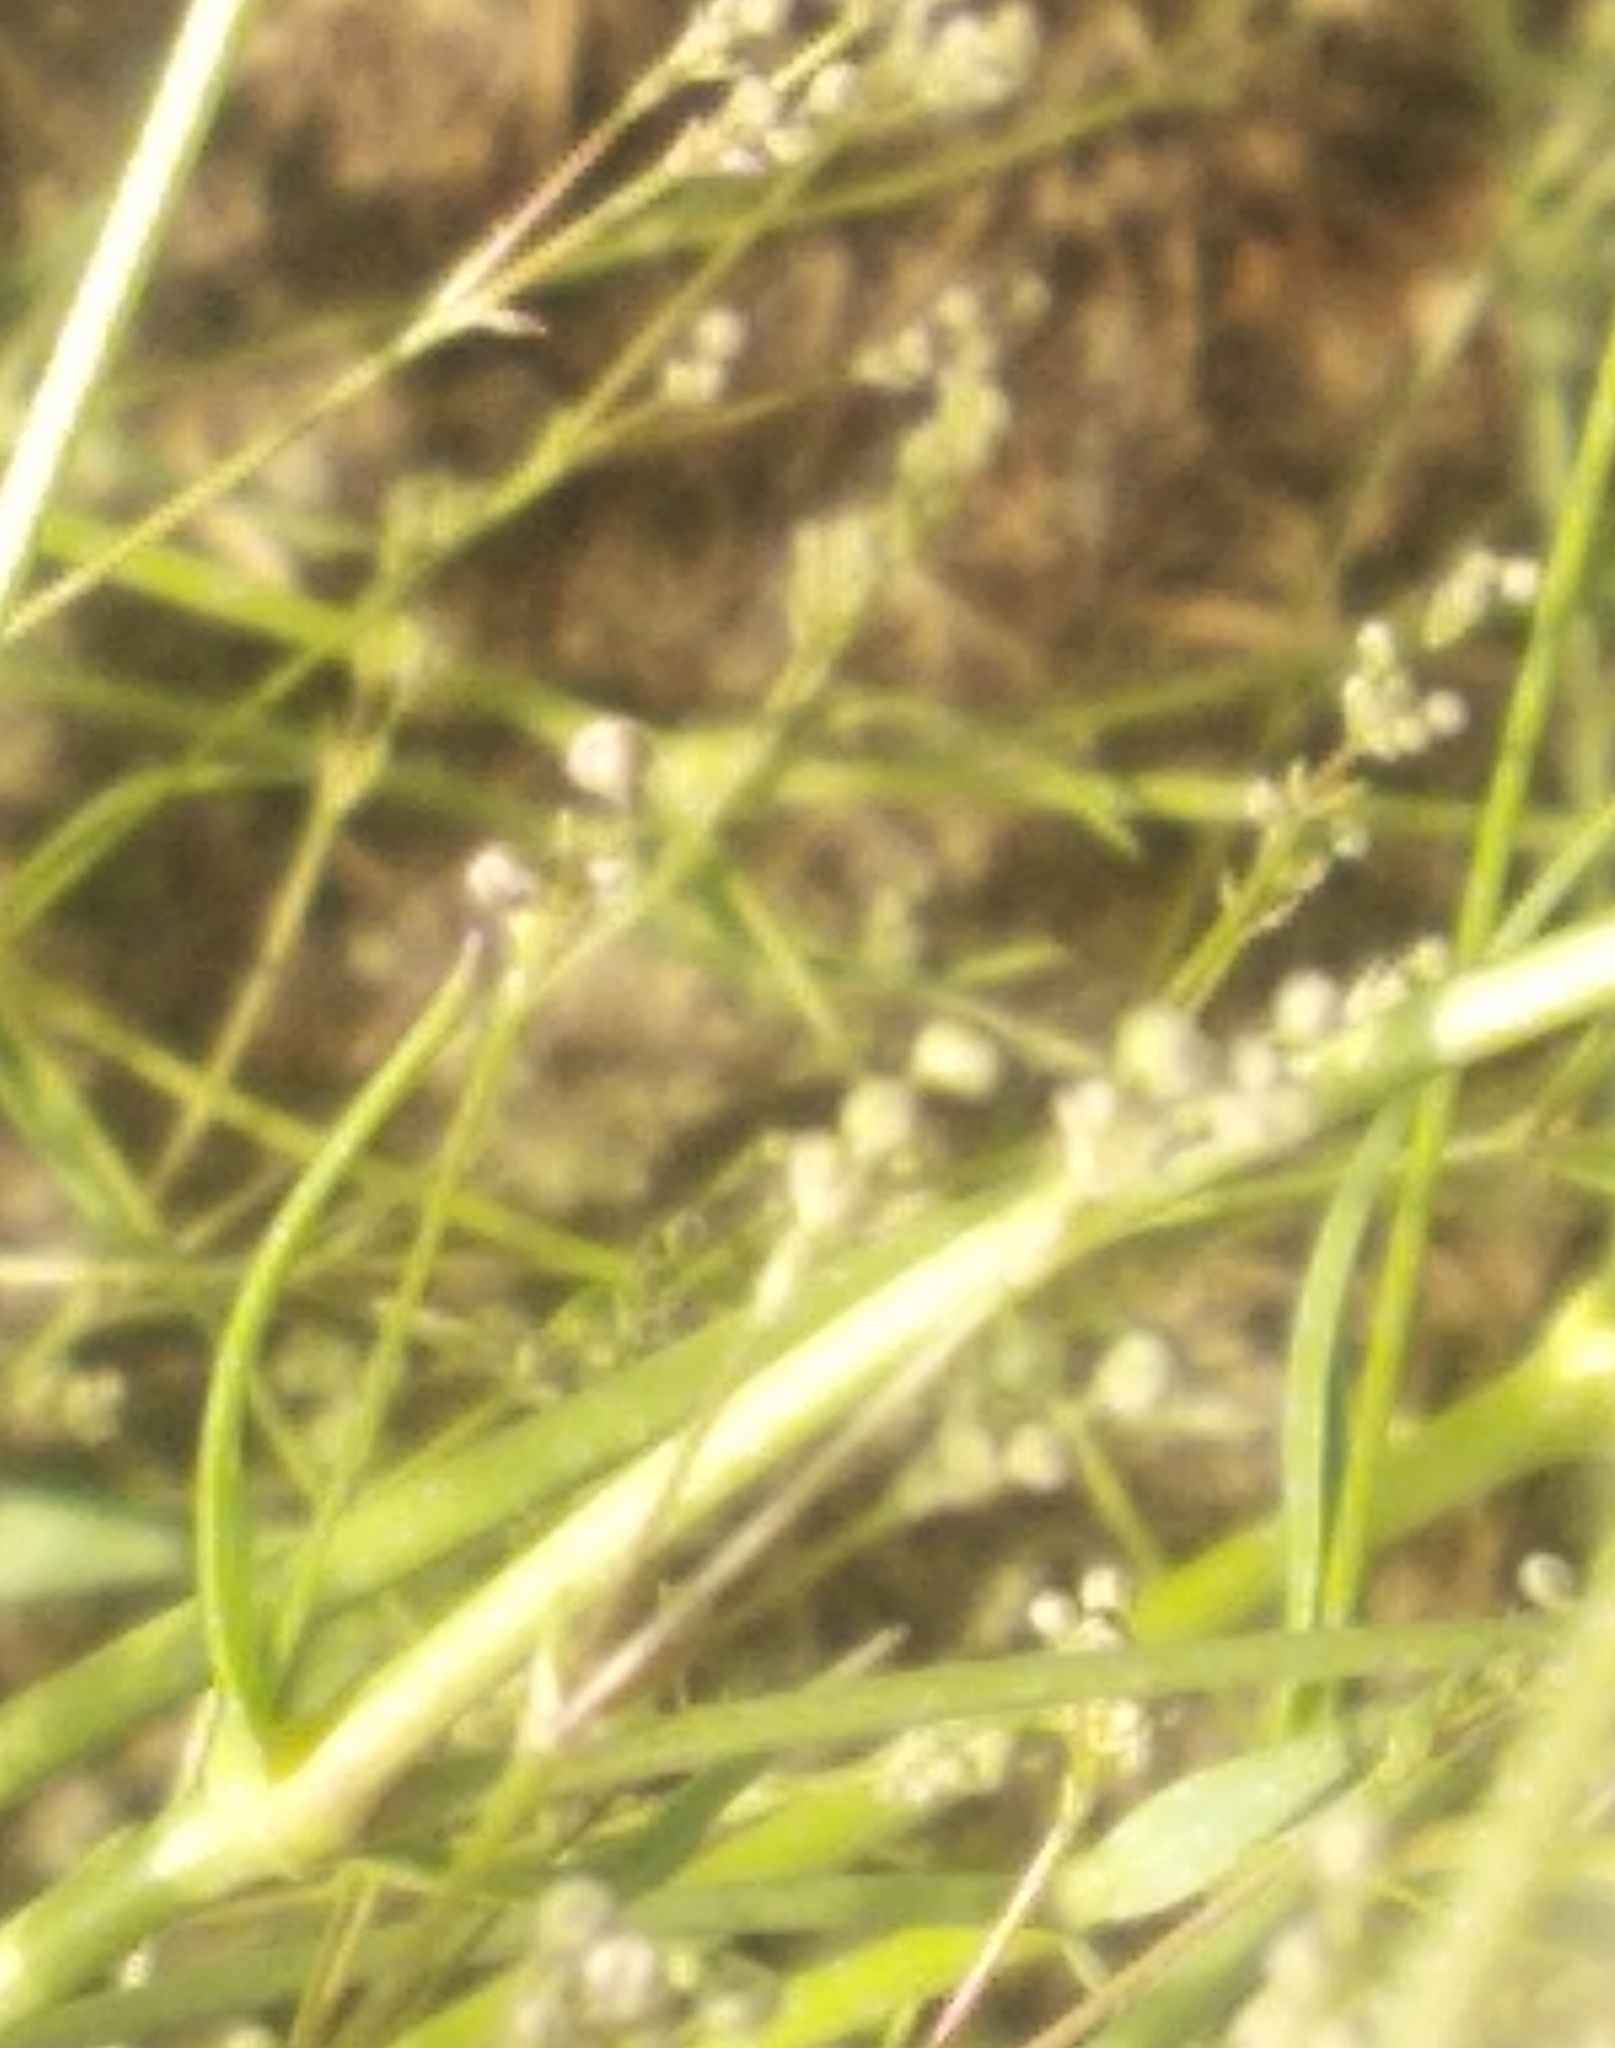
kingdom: Plantae
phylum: Tracheophyta
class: Magnoliopsida
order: Caryophyllales
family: Caryophyllaceae
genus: Gypsophila
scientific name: Gypsophila paniculata
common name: Baby's-breath
